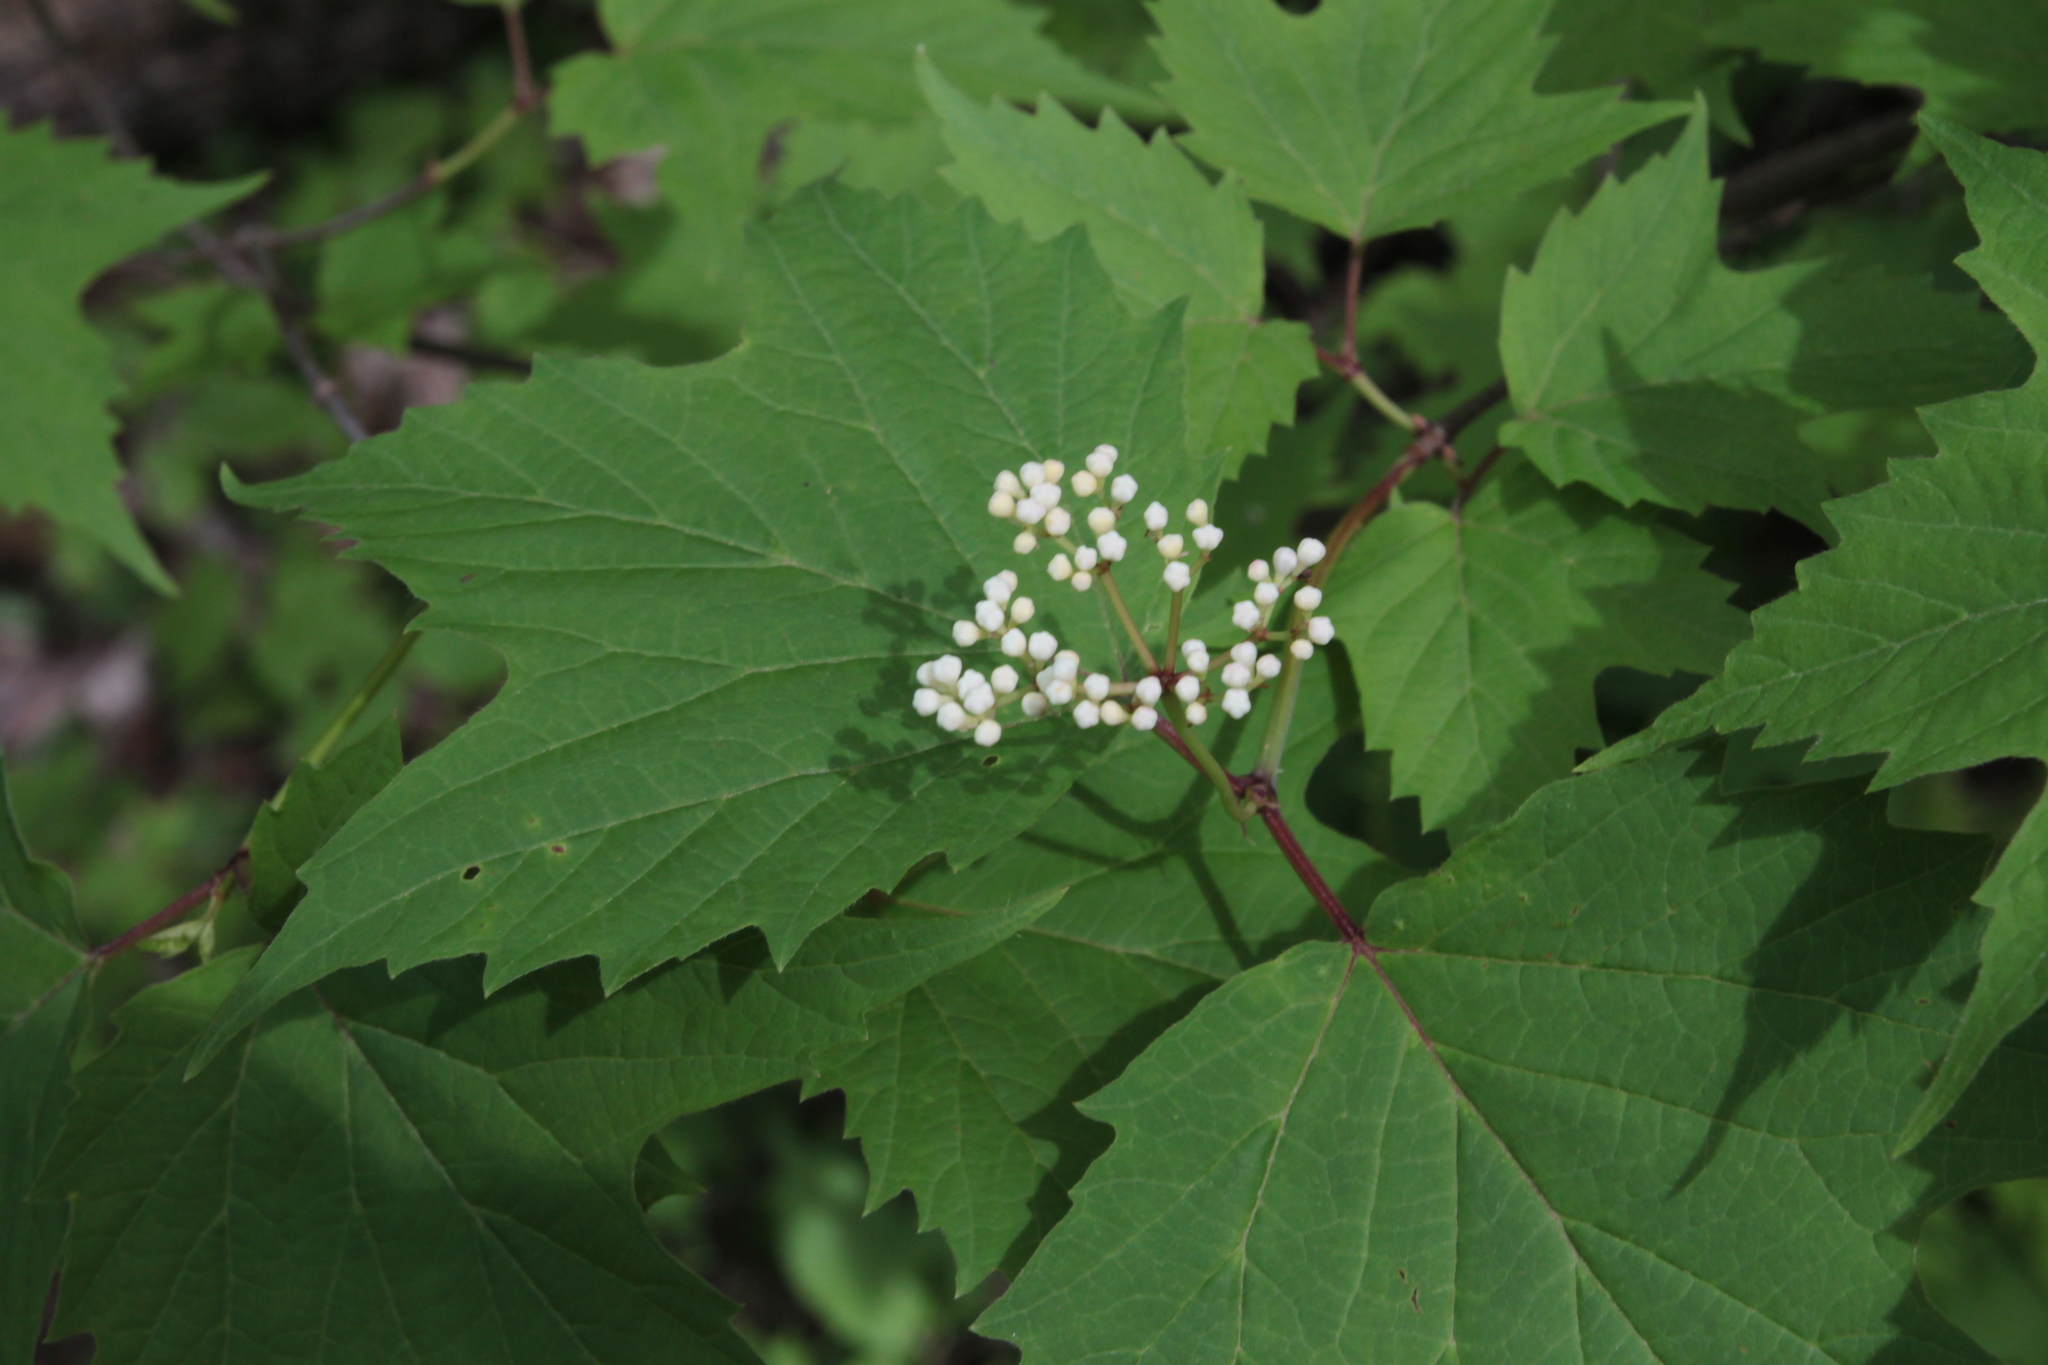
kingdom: Plantae
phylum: Tracheophyta
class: Magnoliopsida
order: Dipsacales
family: Viburnaceae
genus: Viburnum
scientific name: Viburnum acerifolium
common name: Dockmackie
